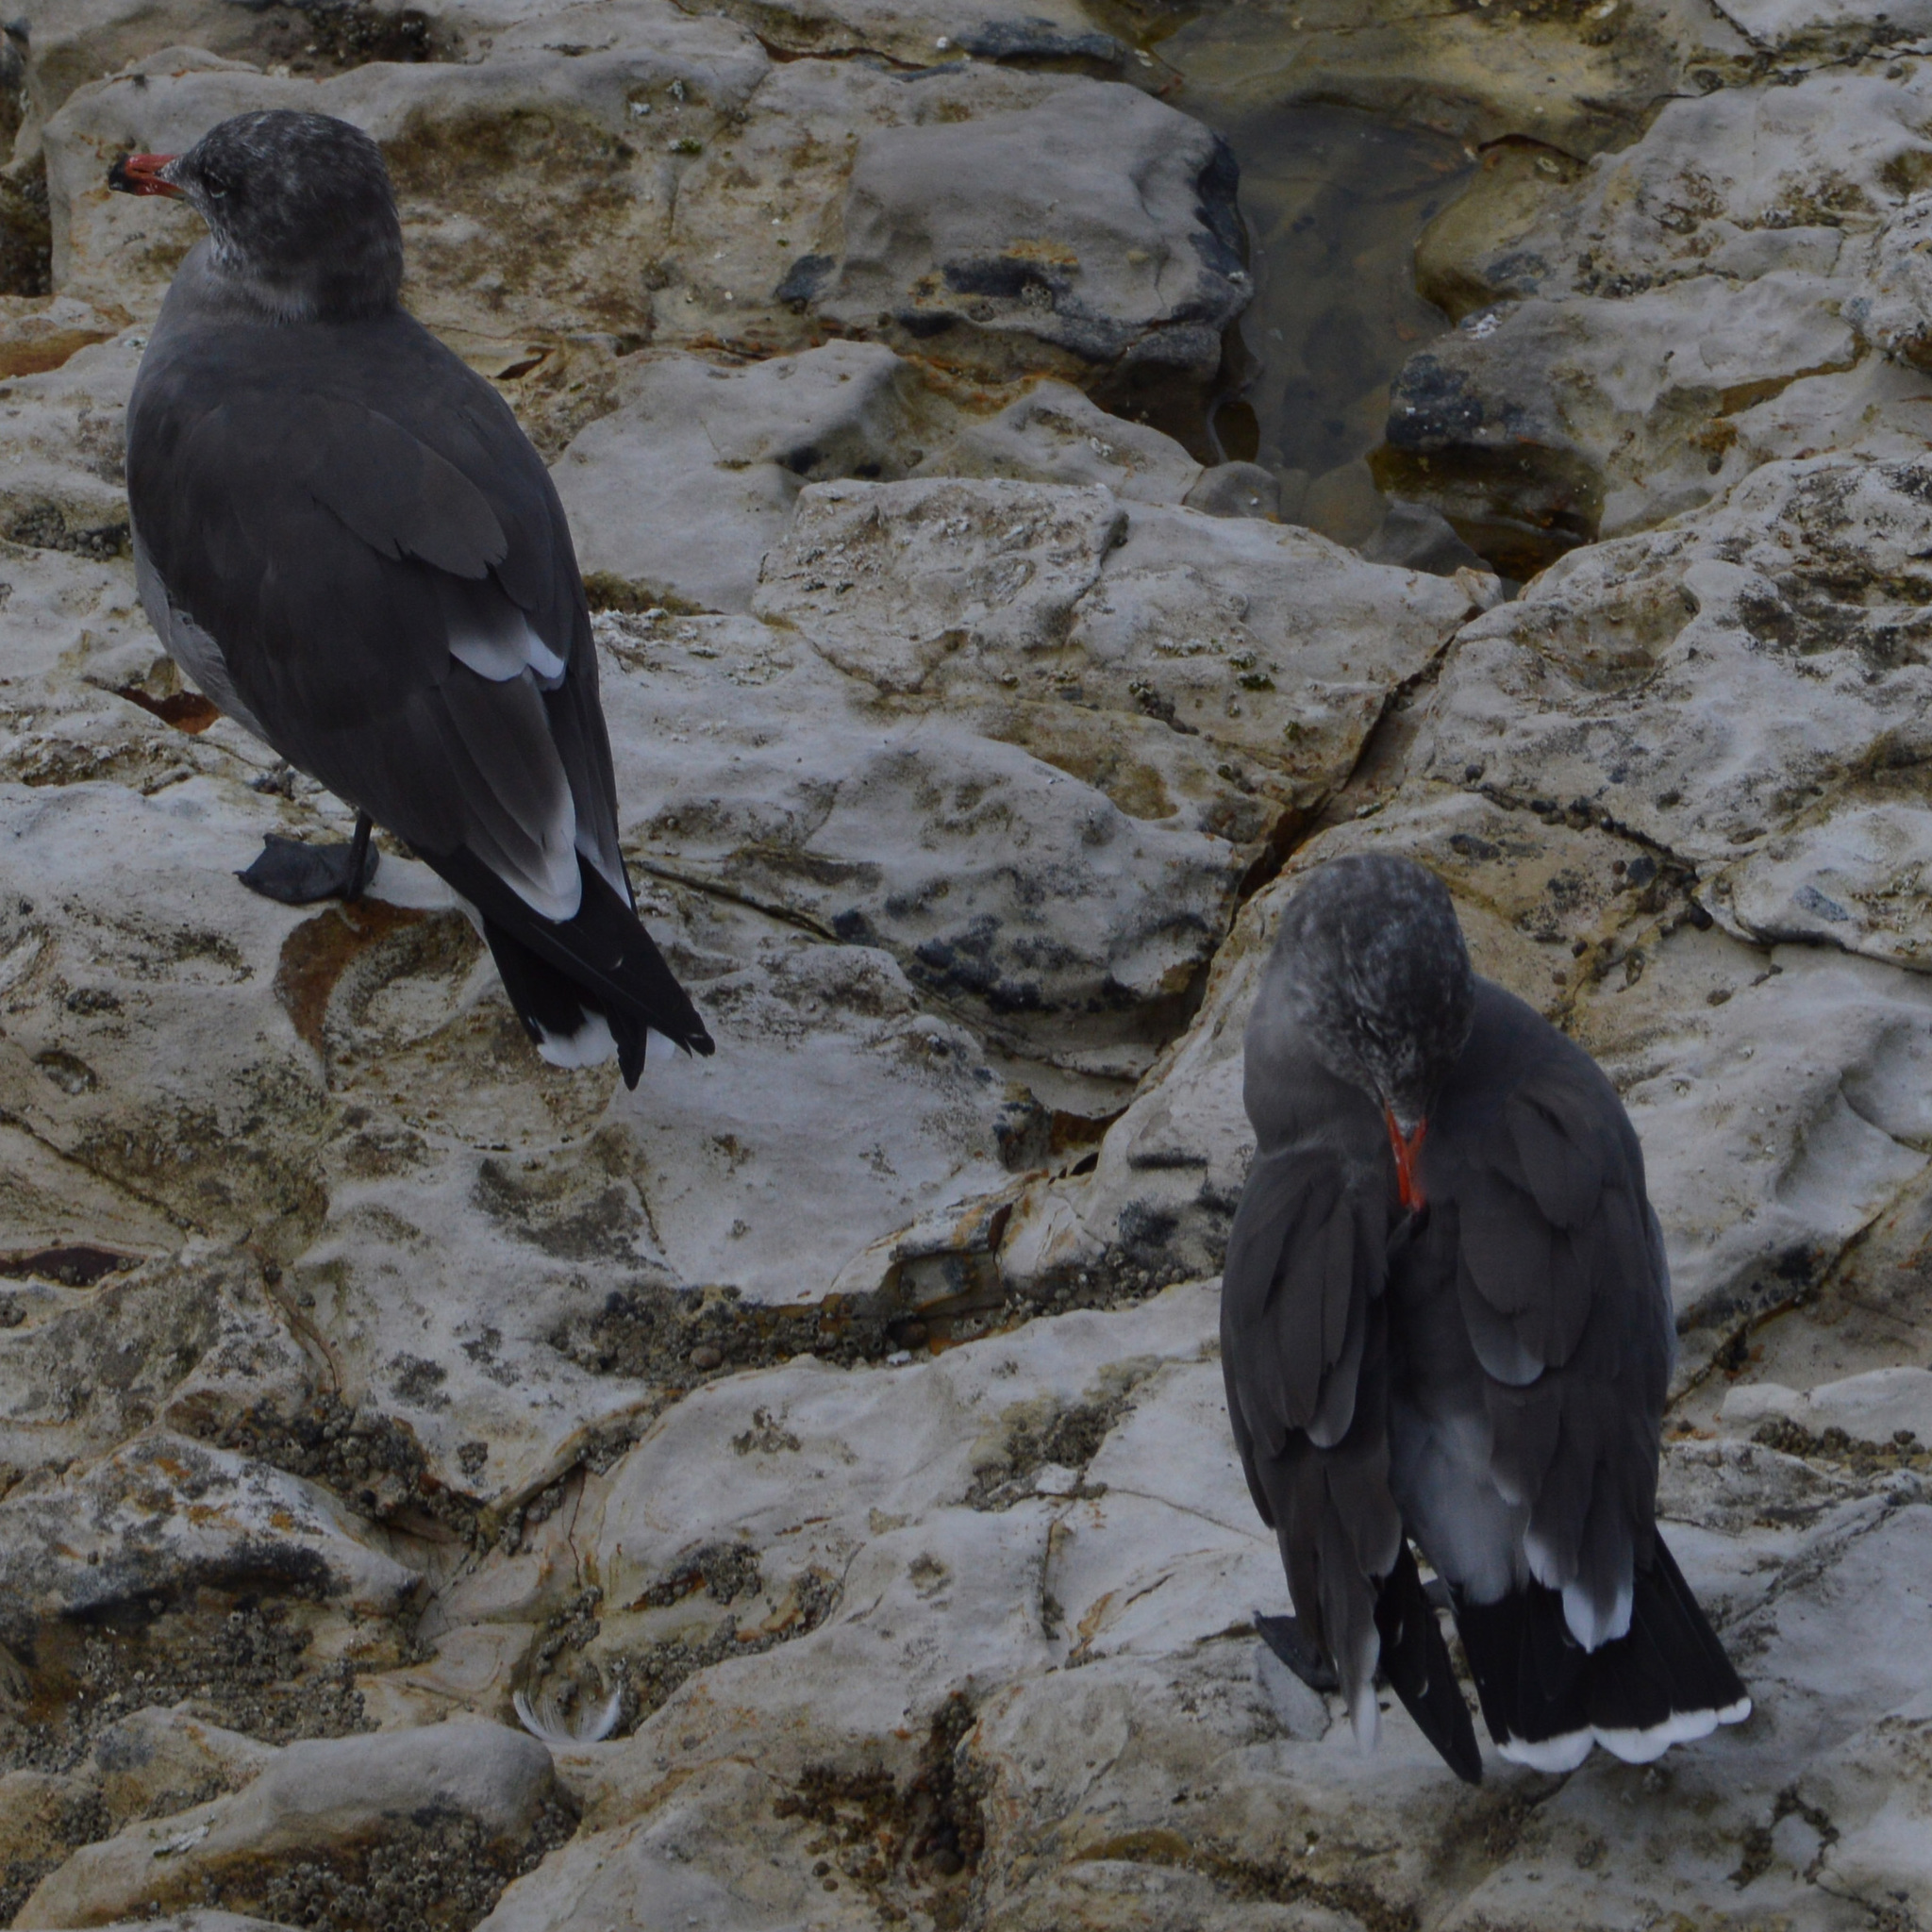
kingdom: Animalia
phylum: Chordata
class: Aves
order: Charadriiformes
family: Laridae
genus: Larus
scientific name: Larus heermanni
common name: Heermann's gull
